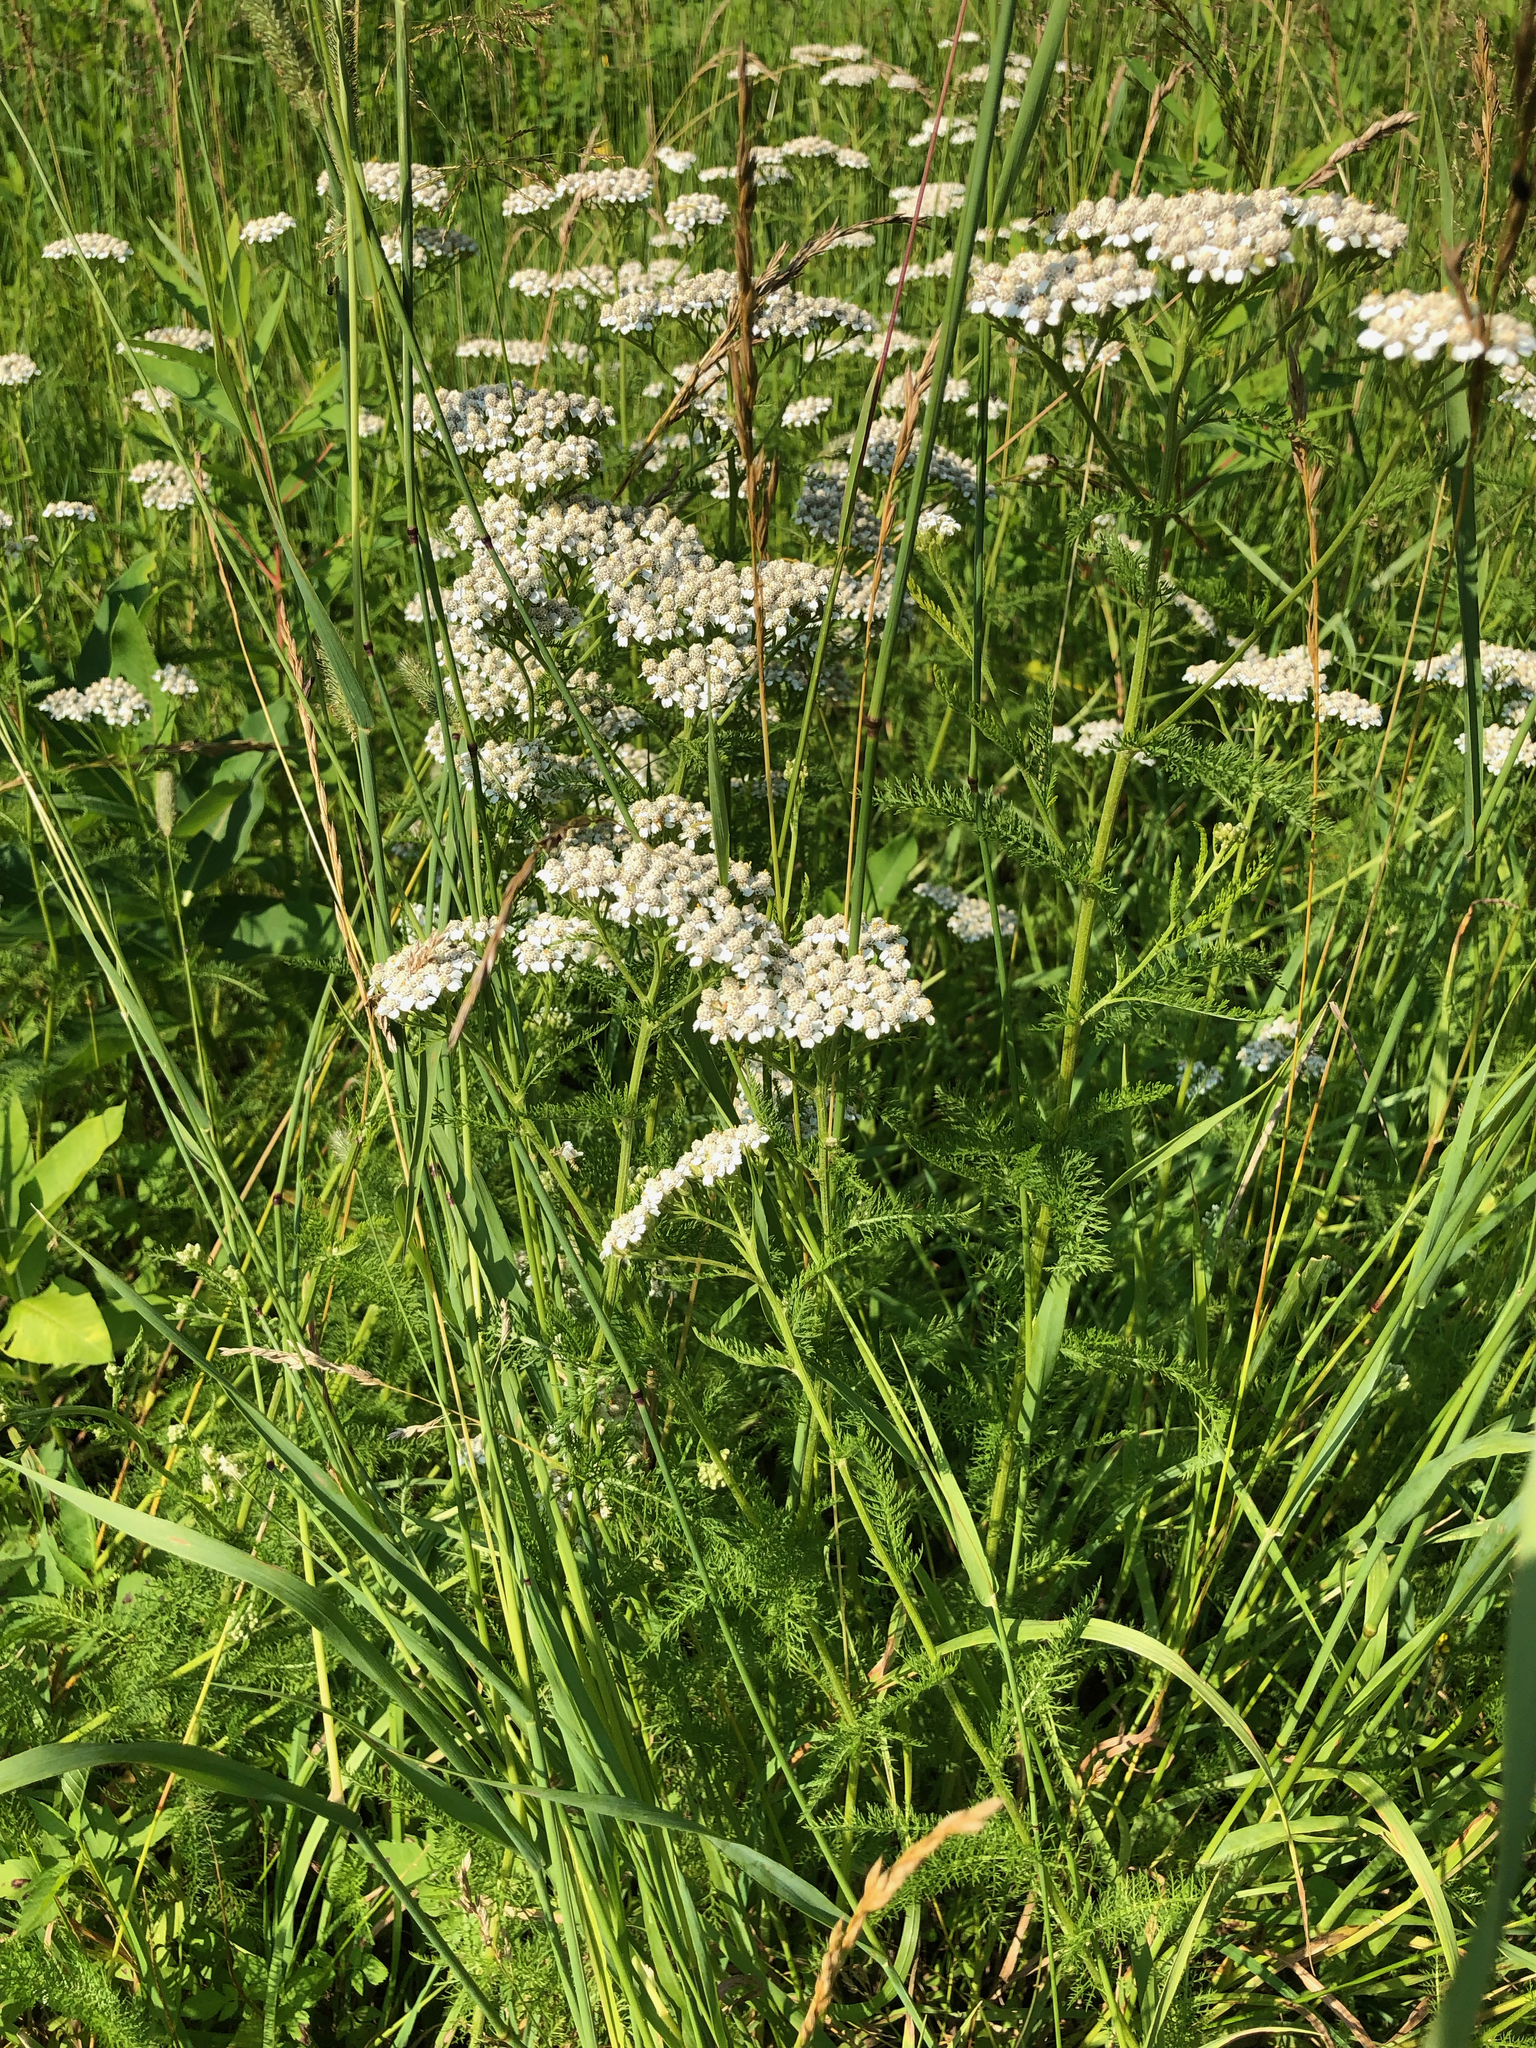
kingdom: Plantae
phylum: Tracheophyta
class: Magnoliopsida
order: Asterales
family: Asteraceae
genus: Achillea
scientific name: Achillea millefolium
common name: Yarrow
